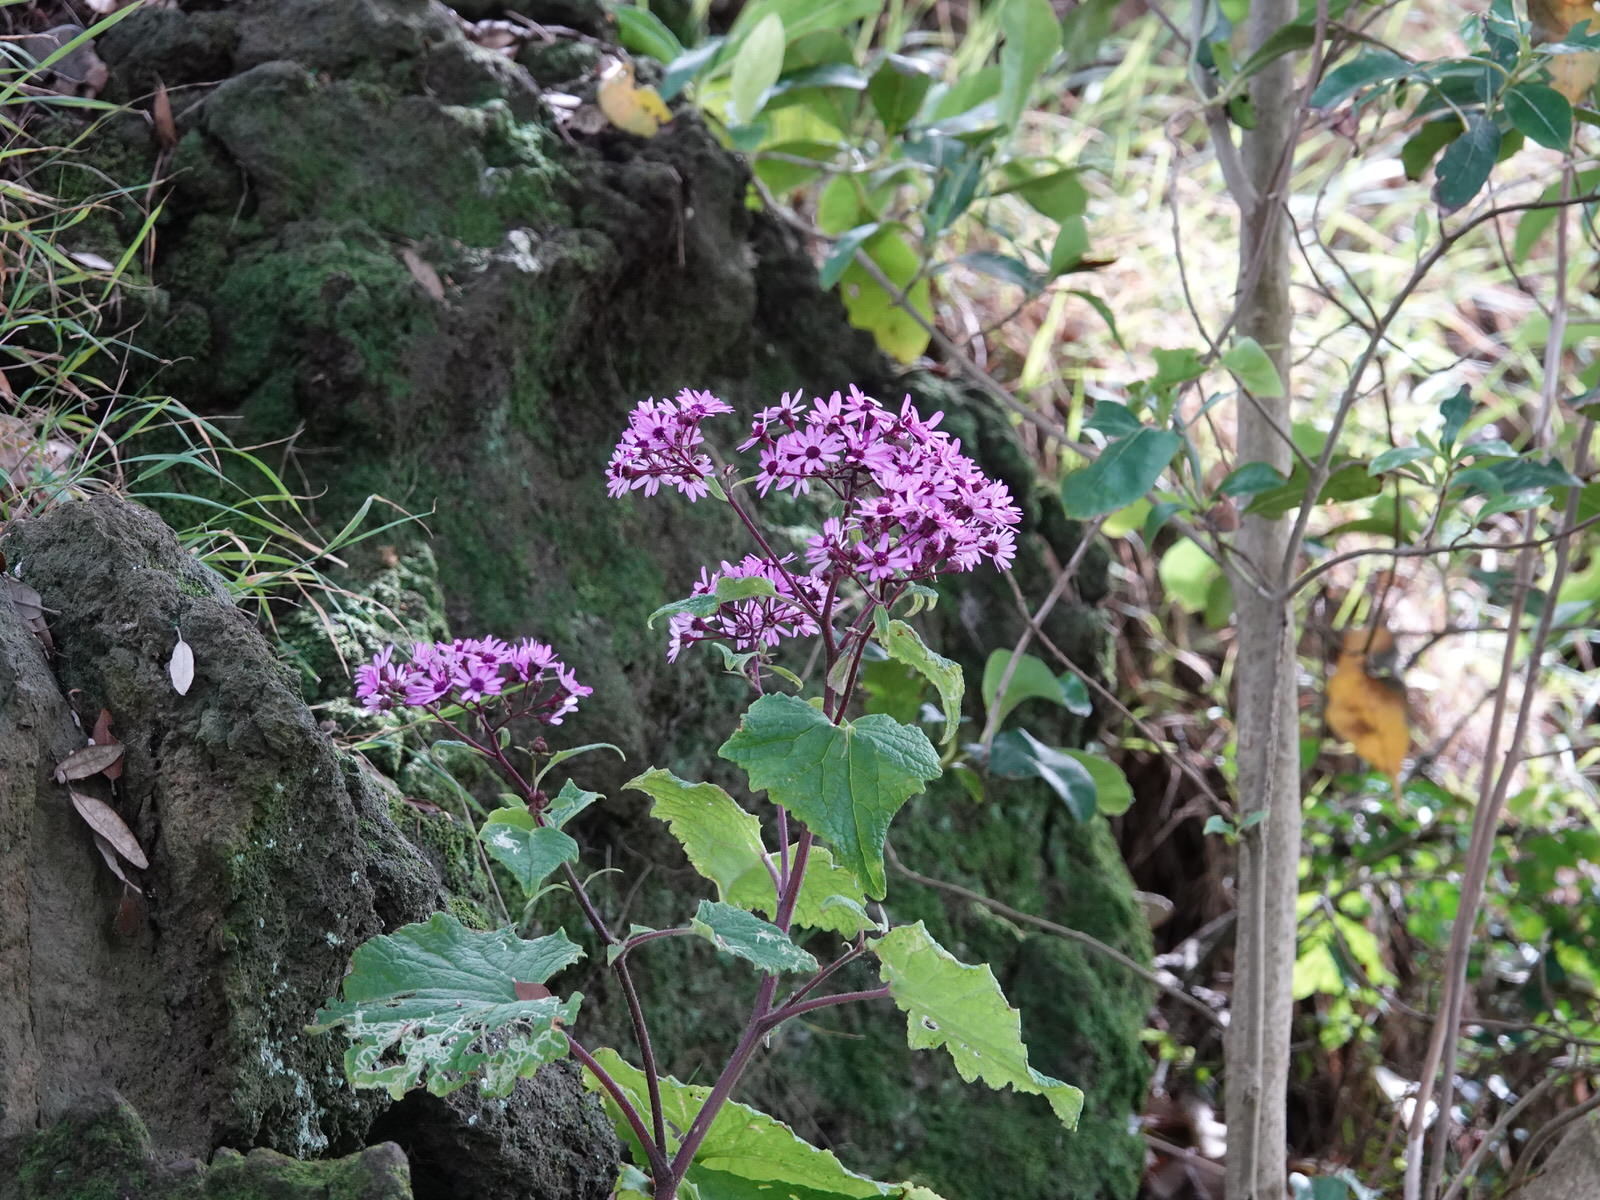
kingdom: Plantae
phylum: Tracheophyta
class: Magnoliopsida
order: Asterales
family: Asteraceae
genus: Pericallis
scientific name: Pericallis hybrida
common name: Cineraria
